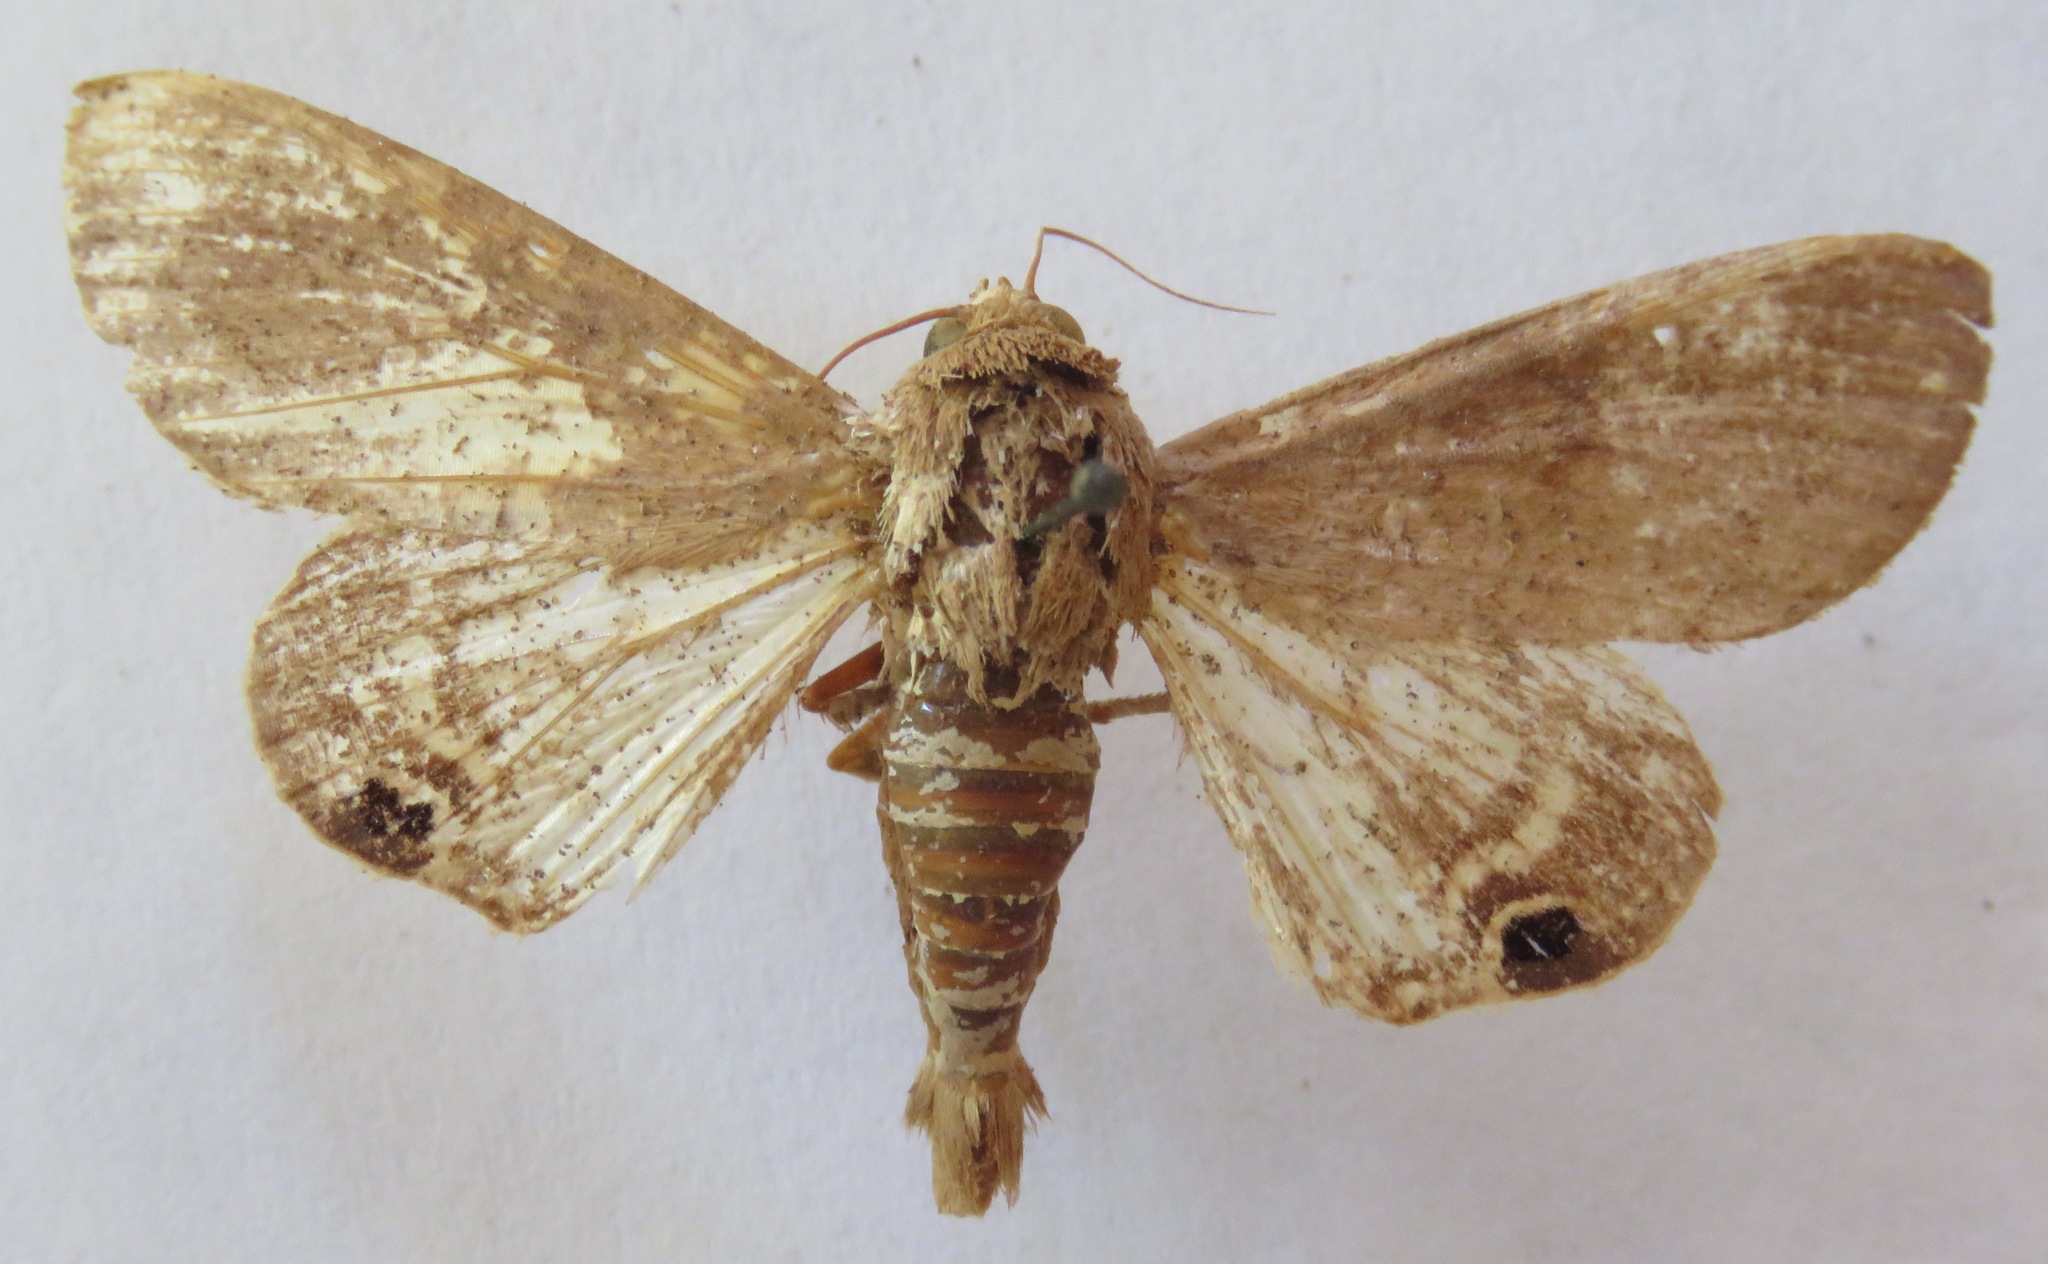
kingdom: Animalia
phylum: Arthropoda
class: Insecta
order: Lepidoptera
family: Erebidae
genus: Litoprosopus
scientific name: Litoprosopus confligens
